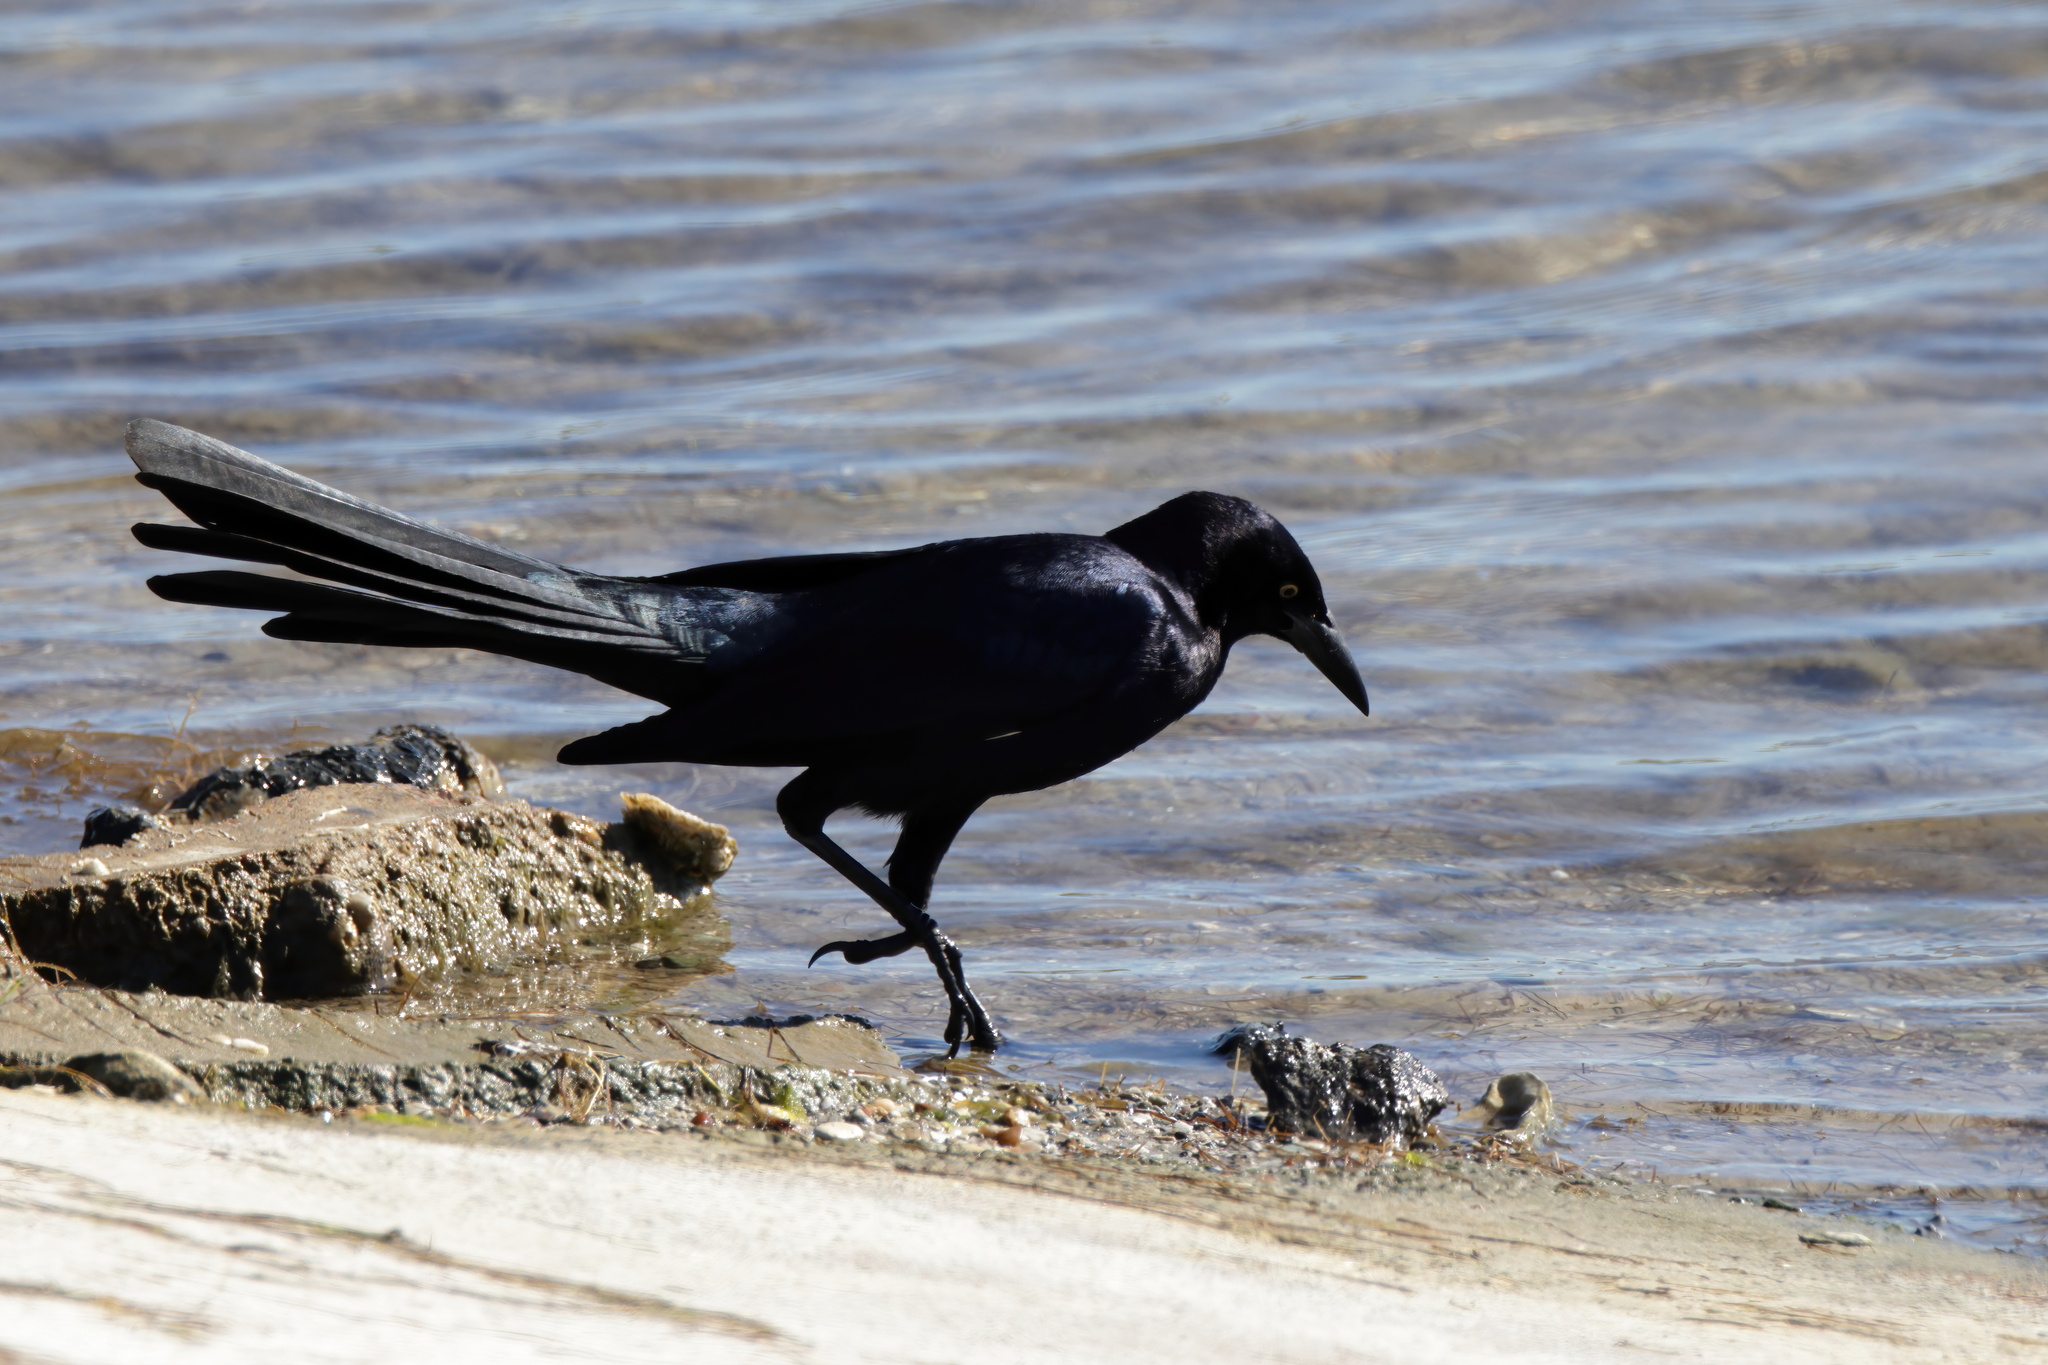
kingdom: Animalia
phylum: Chordata
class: Aves
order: Passeriformes
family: Icteridae
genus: Quiscalus
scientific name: Quiscalus mexicanus
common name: Great-tailed grackle
